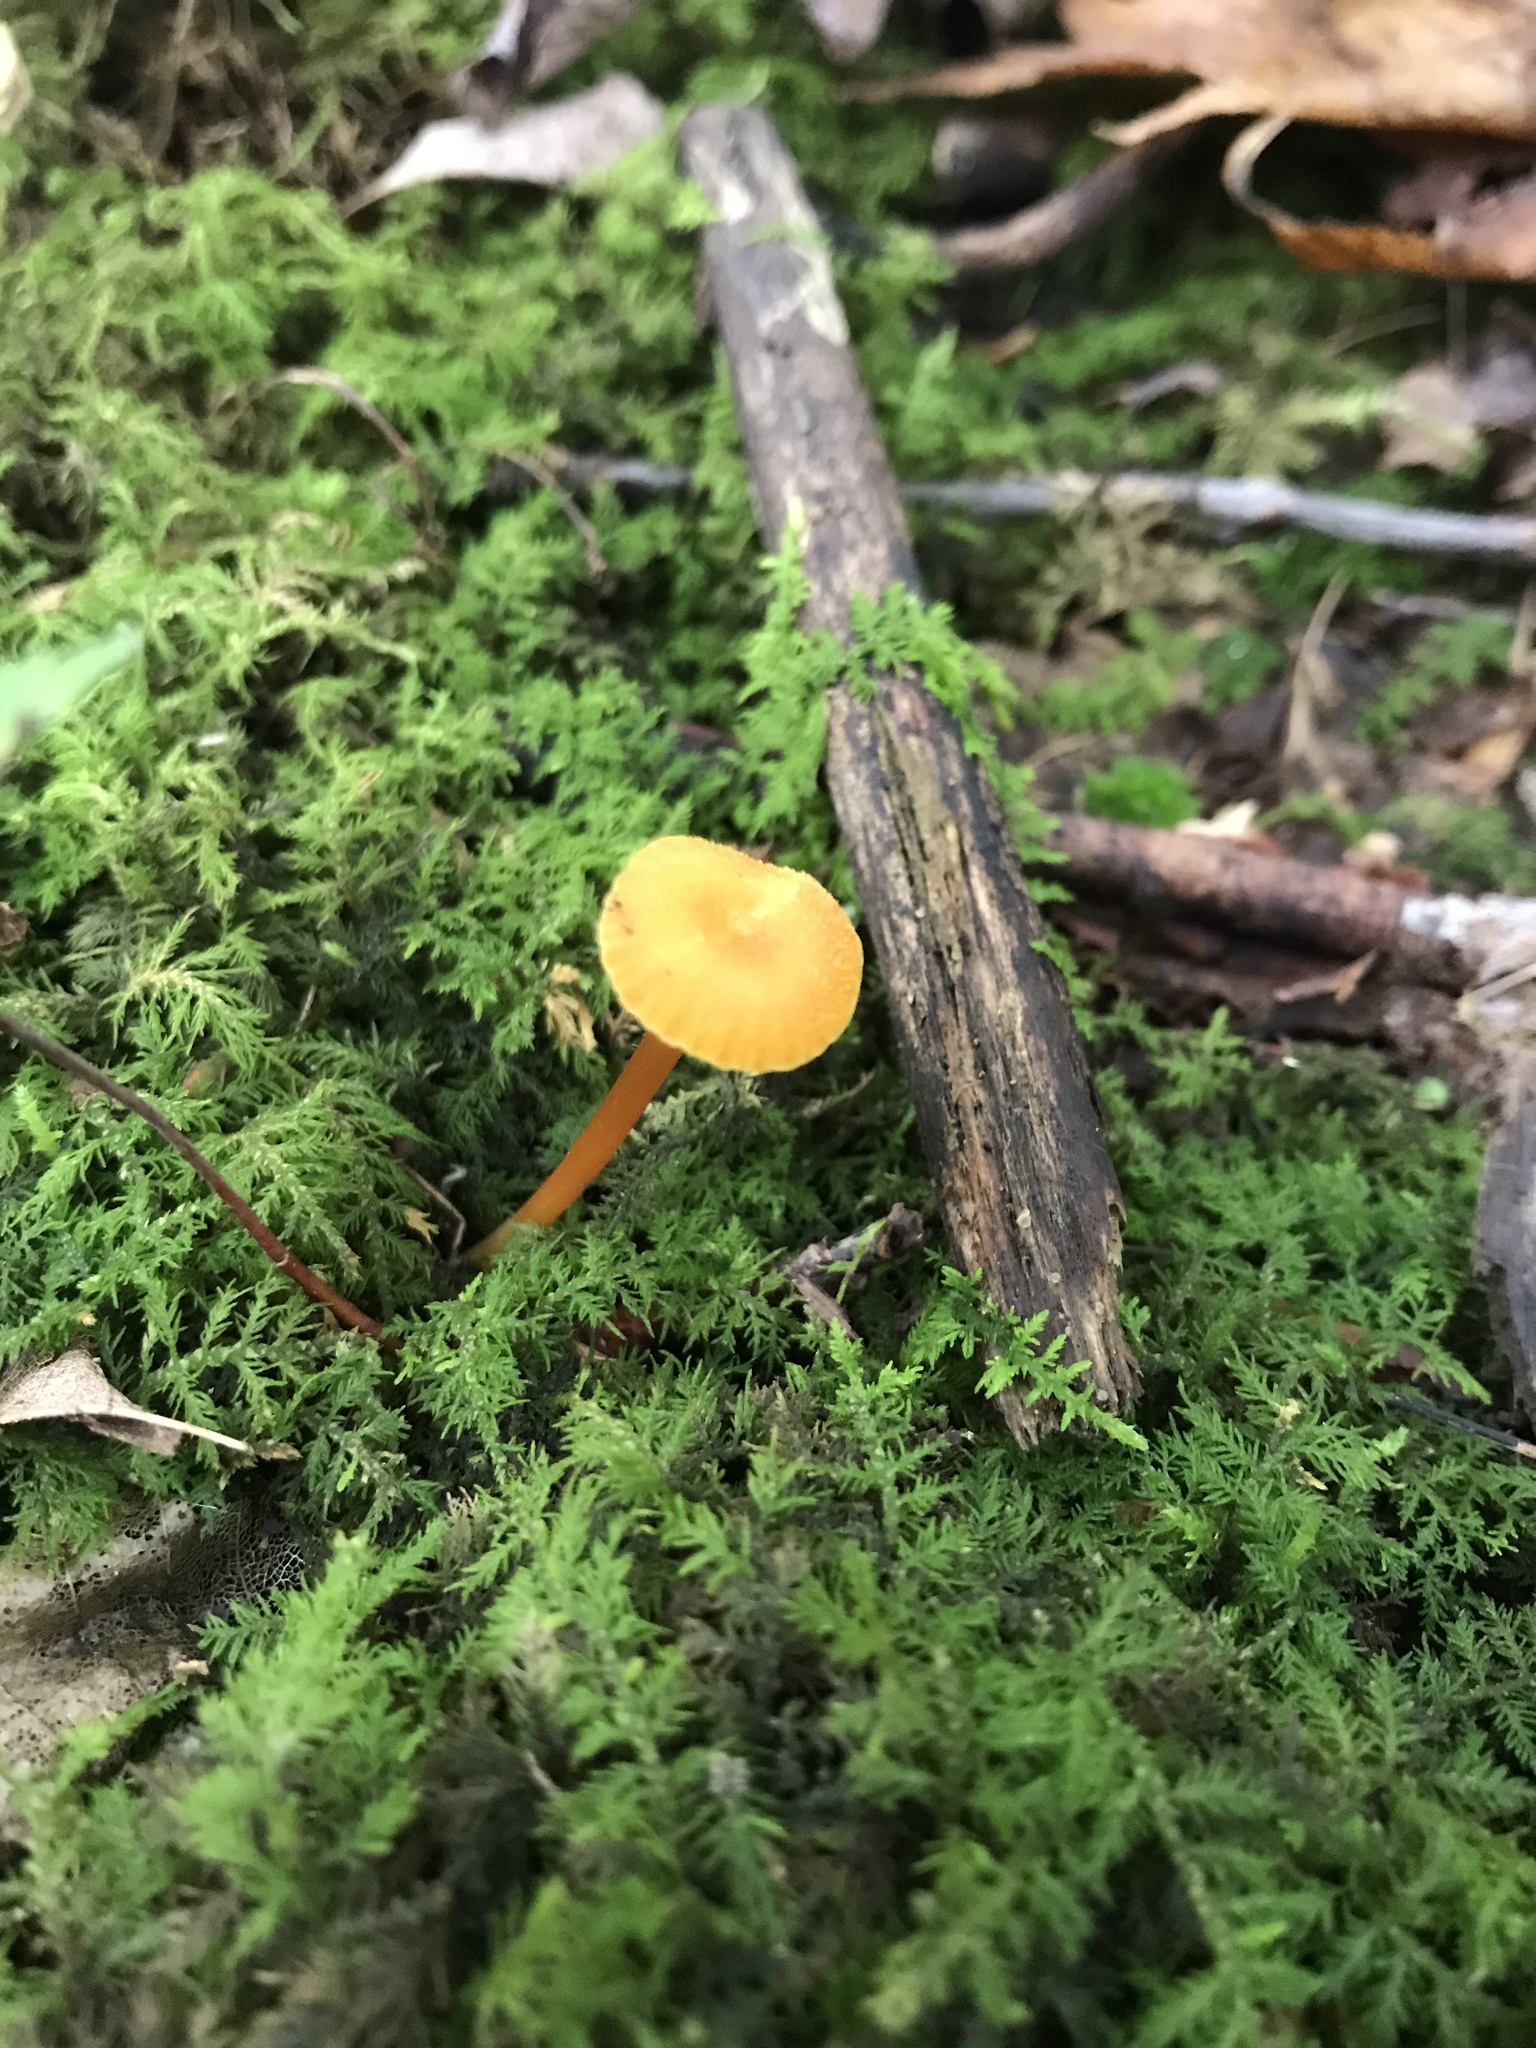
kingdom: Fungi
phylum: Basidiomycota
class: Agaricomycetes
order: Hymenochaetales
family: Rickenellaceae
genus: Rickenella
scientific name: Rickenella fibula
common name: Orange mosscap
